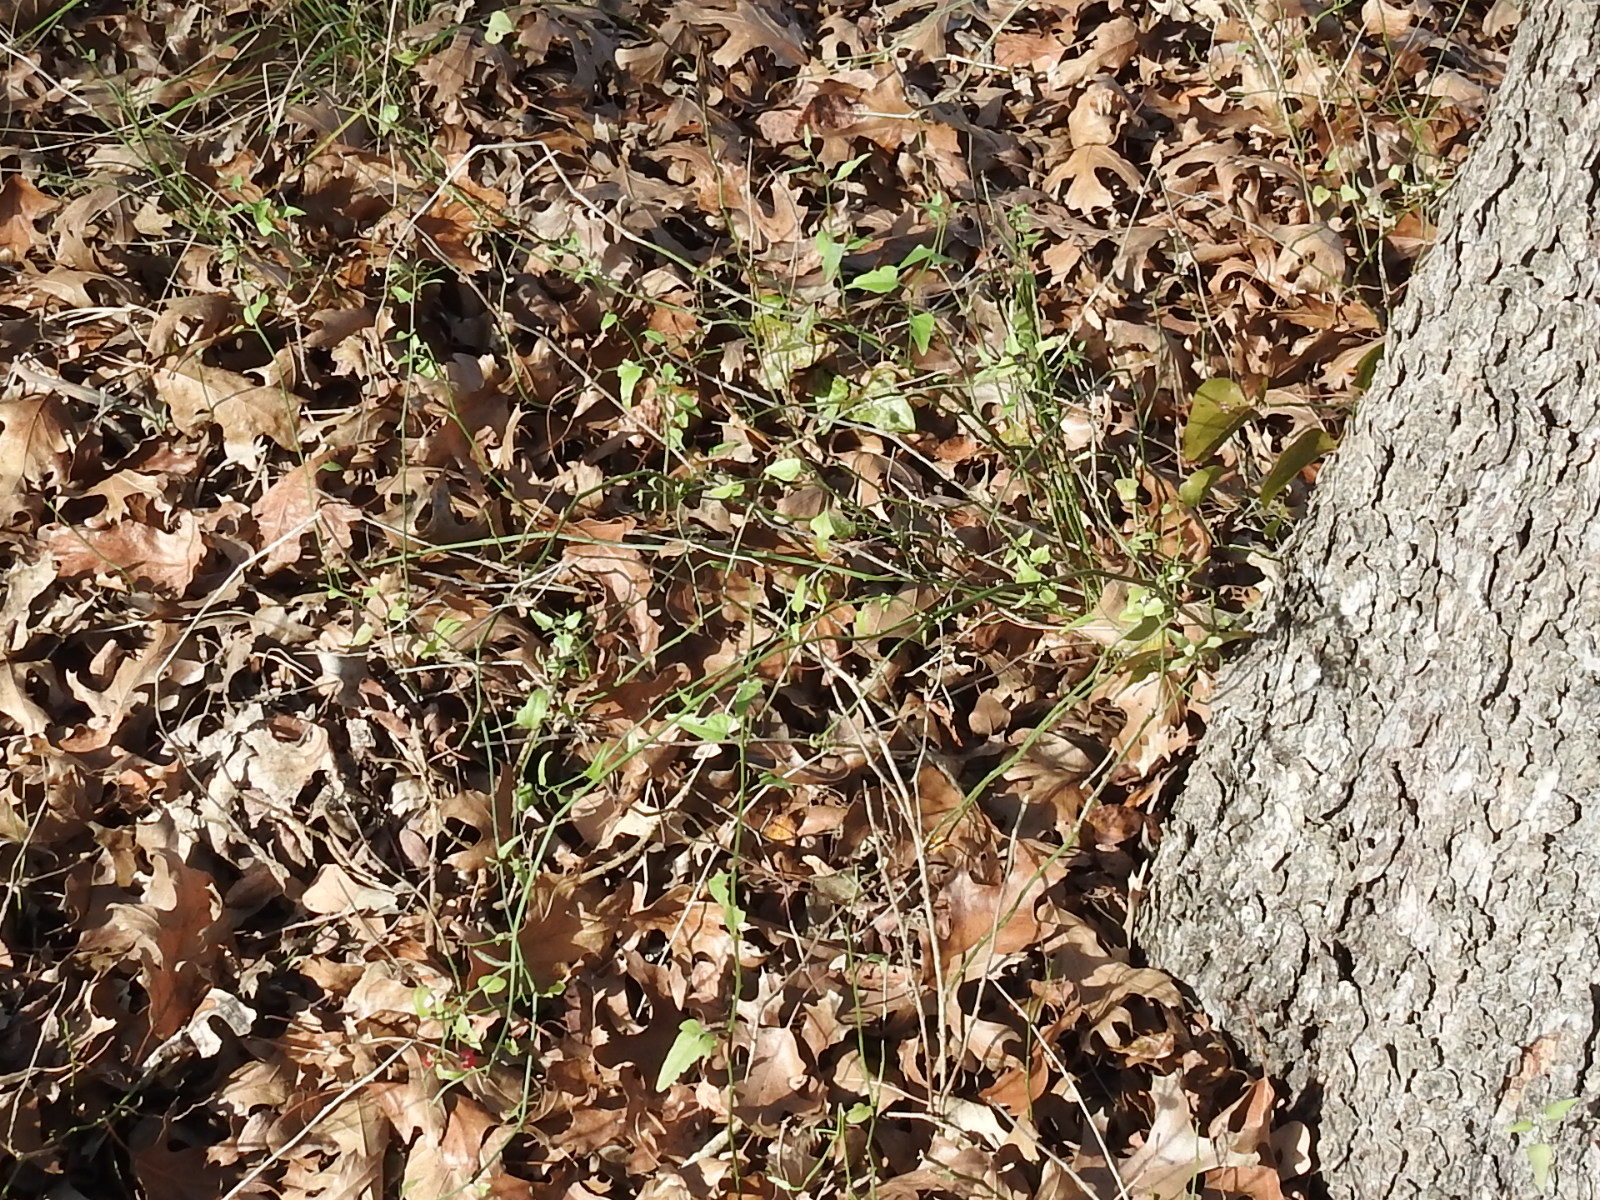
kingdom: Plantae
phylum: Tracheophyta
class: Magnoliopsida
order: Solanales
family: Solanaceae
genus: Solanum
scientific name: Solanum triquetrum
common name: Texas nightshade
